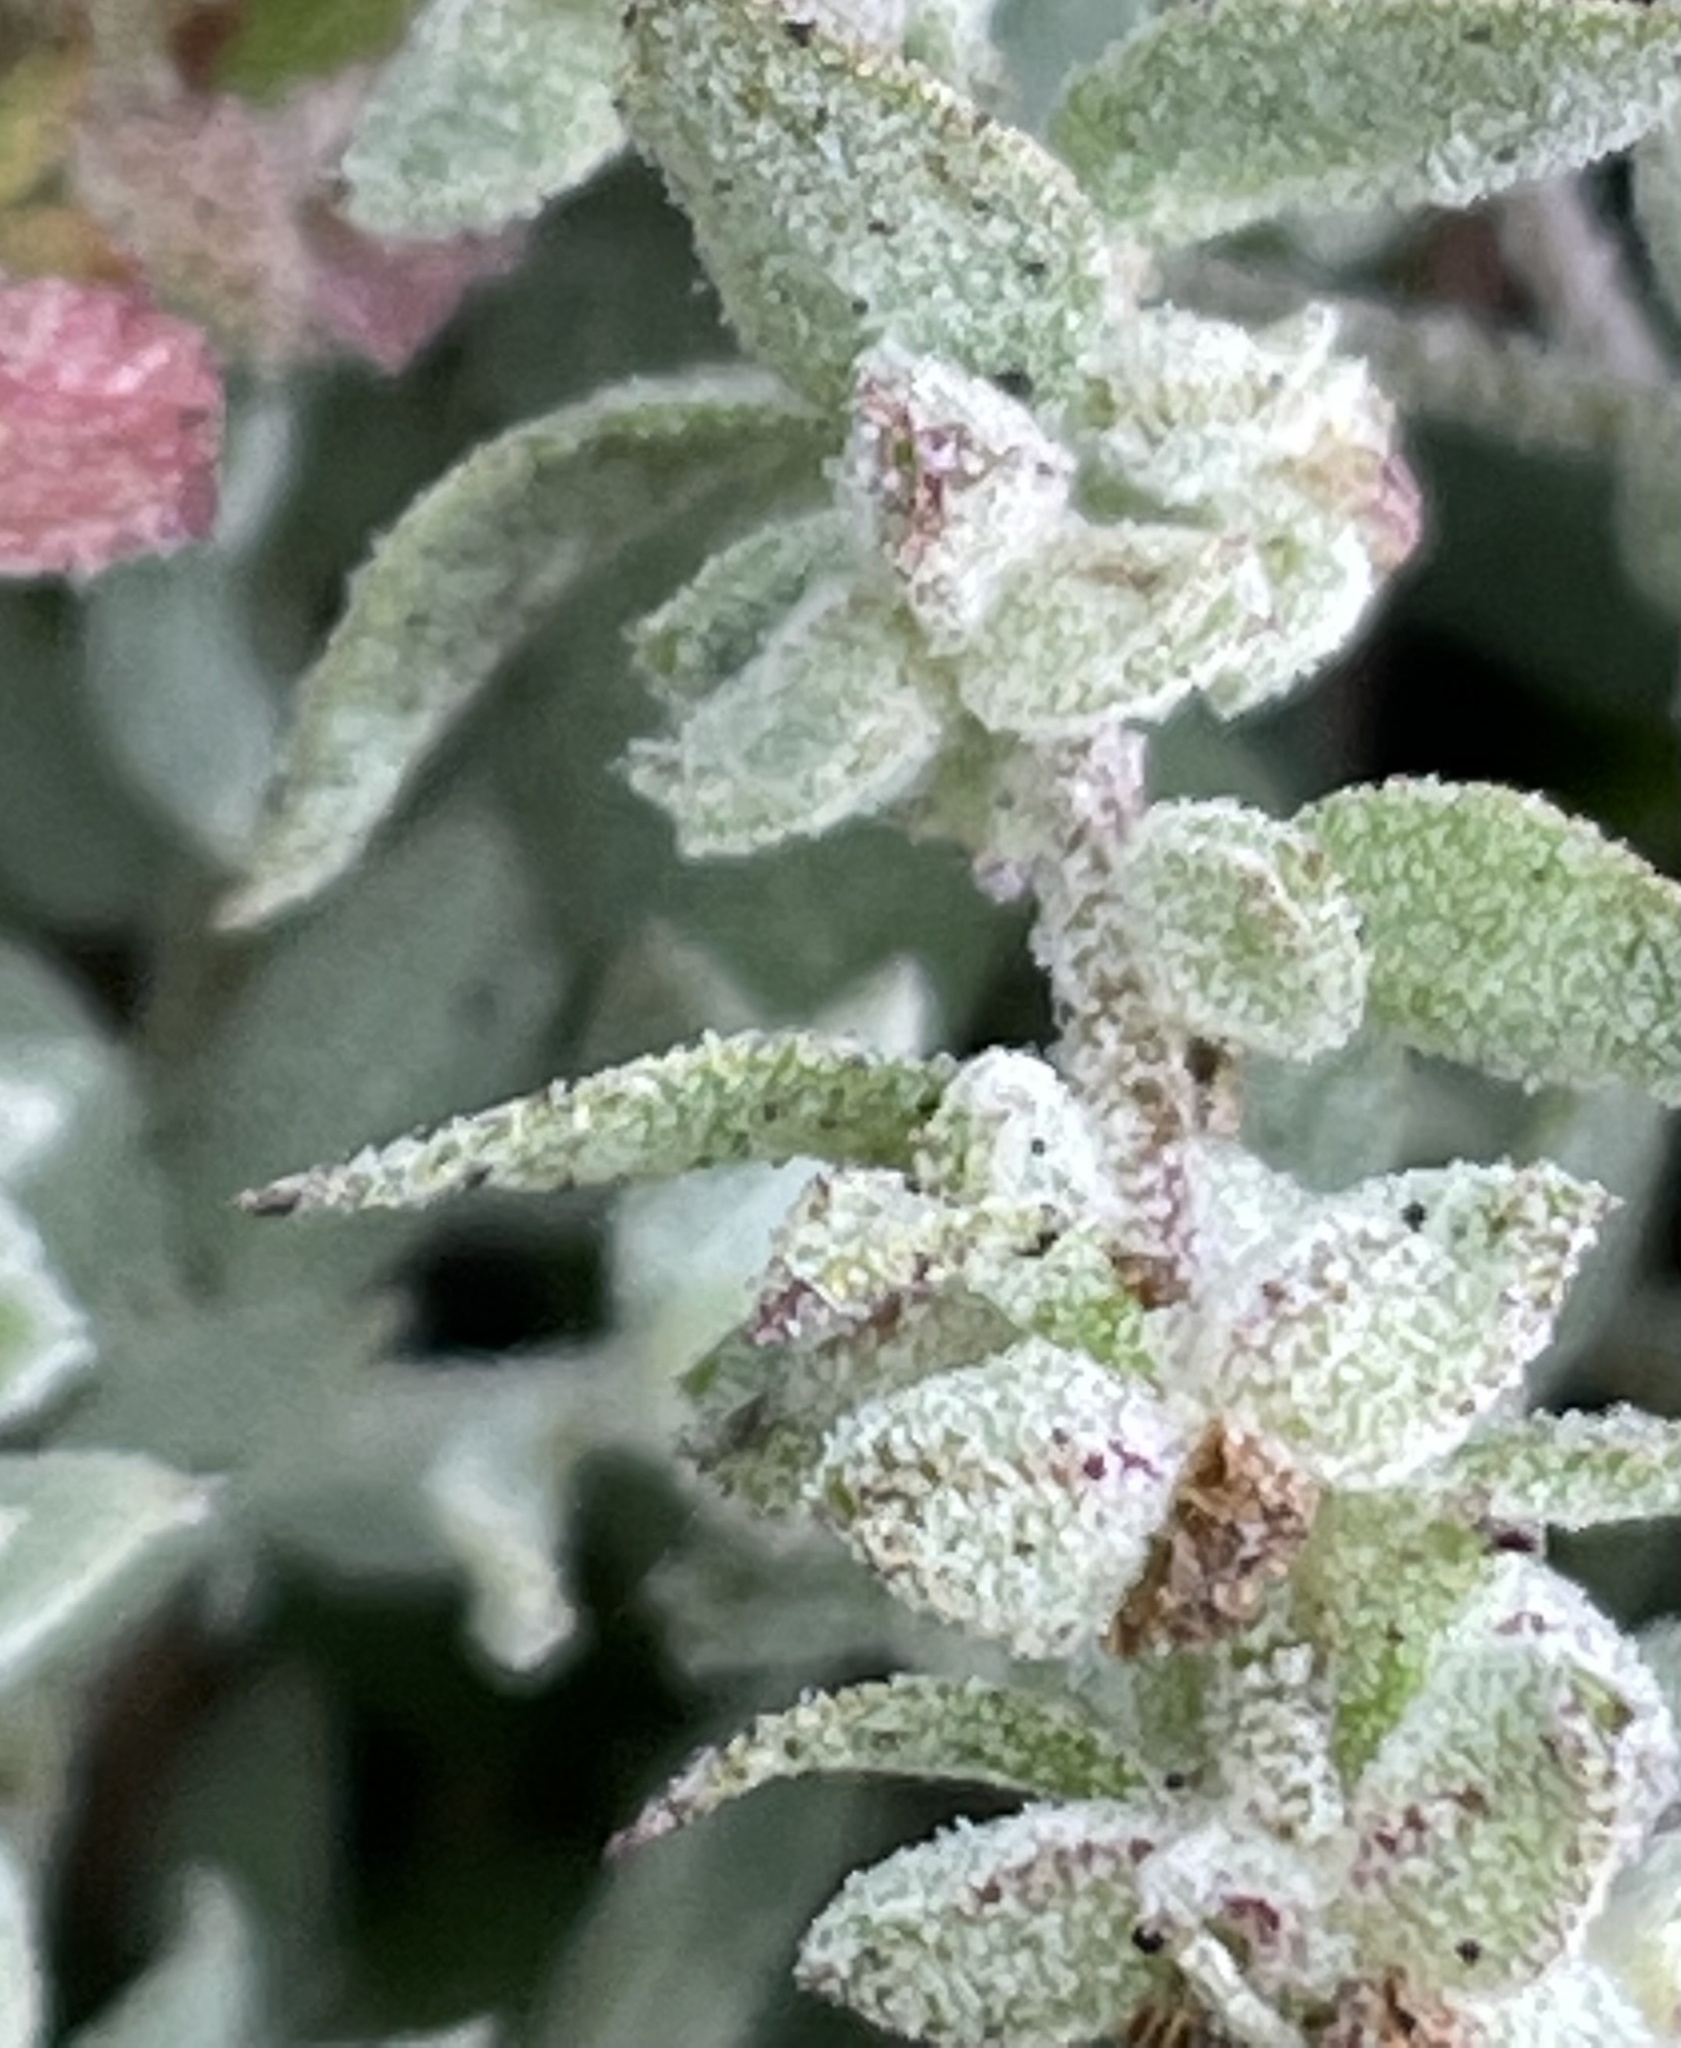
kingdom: Plantae
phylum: Tracheophyta
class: Magnoliopsida
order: Caryophyllales
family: Amaranthaceae
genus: Extriplex
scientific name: Extriplex californica
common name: California saltbush
